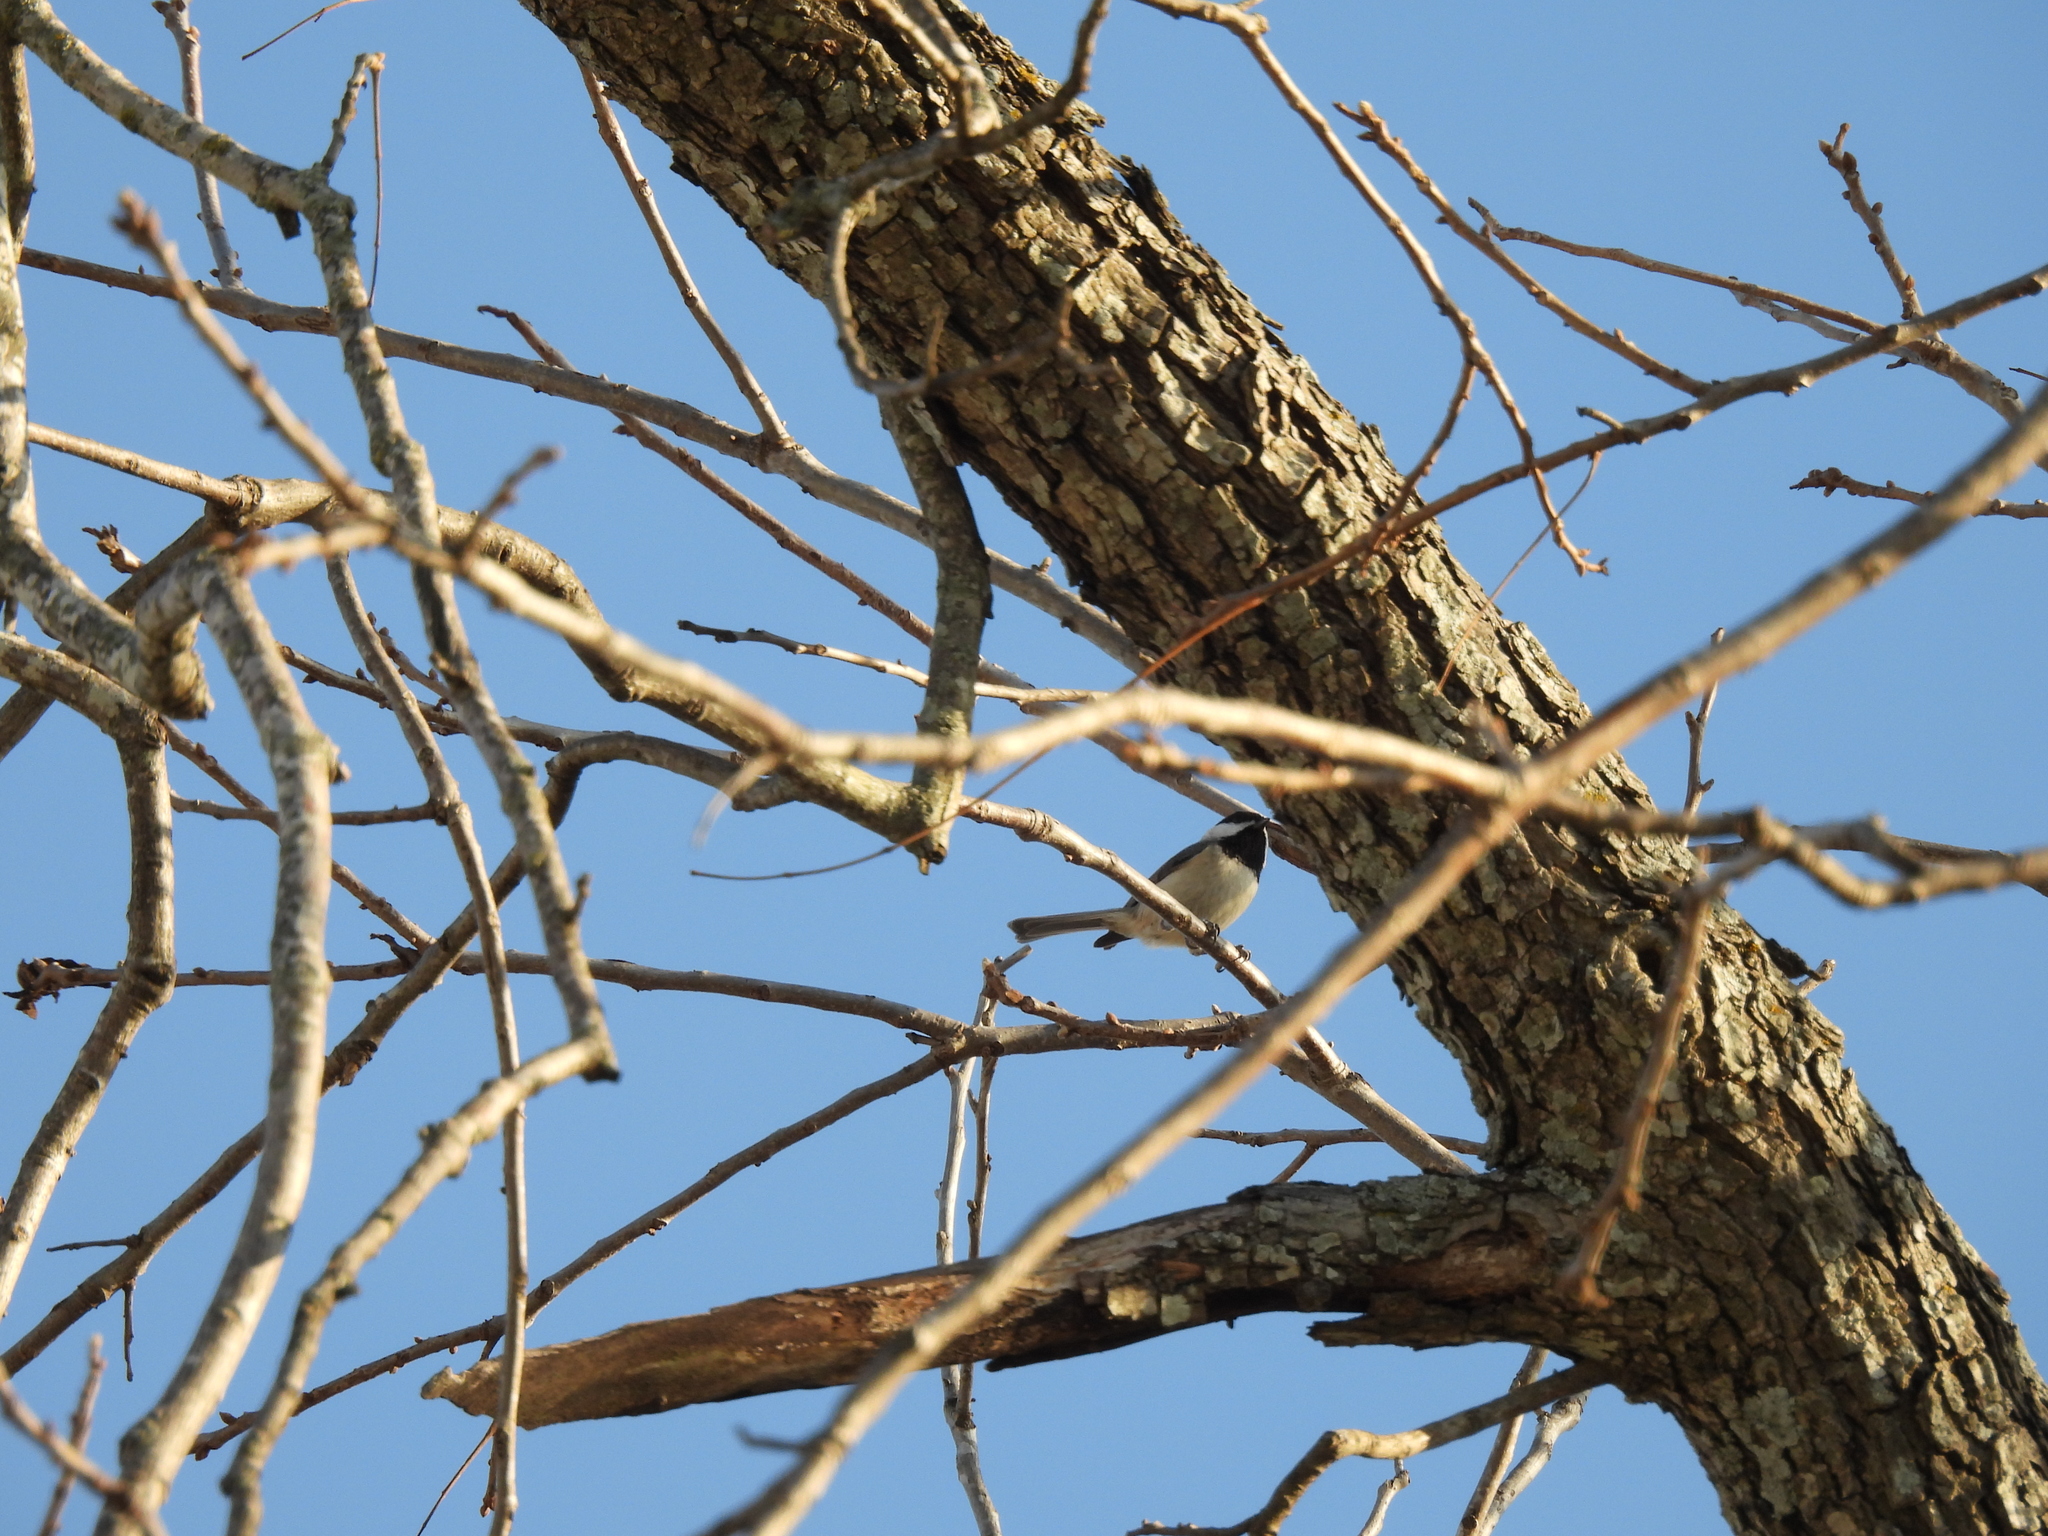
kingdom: Animalia
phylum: Chordata
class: Aves
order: Passeriformes
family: Paridae
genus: Poecile
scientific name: Poecile carolinensis
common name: Carolina chickadee
